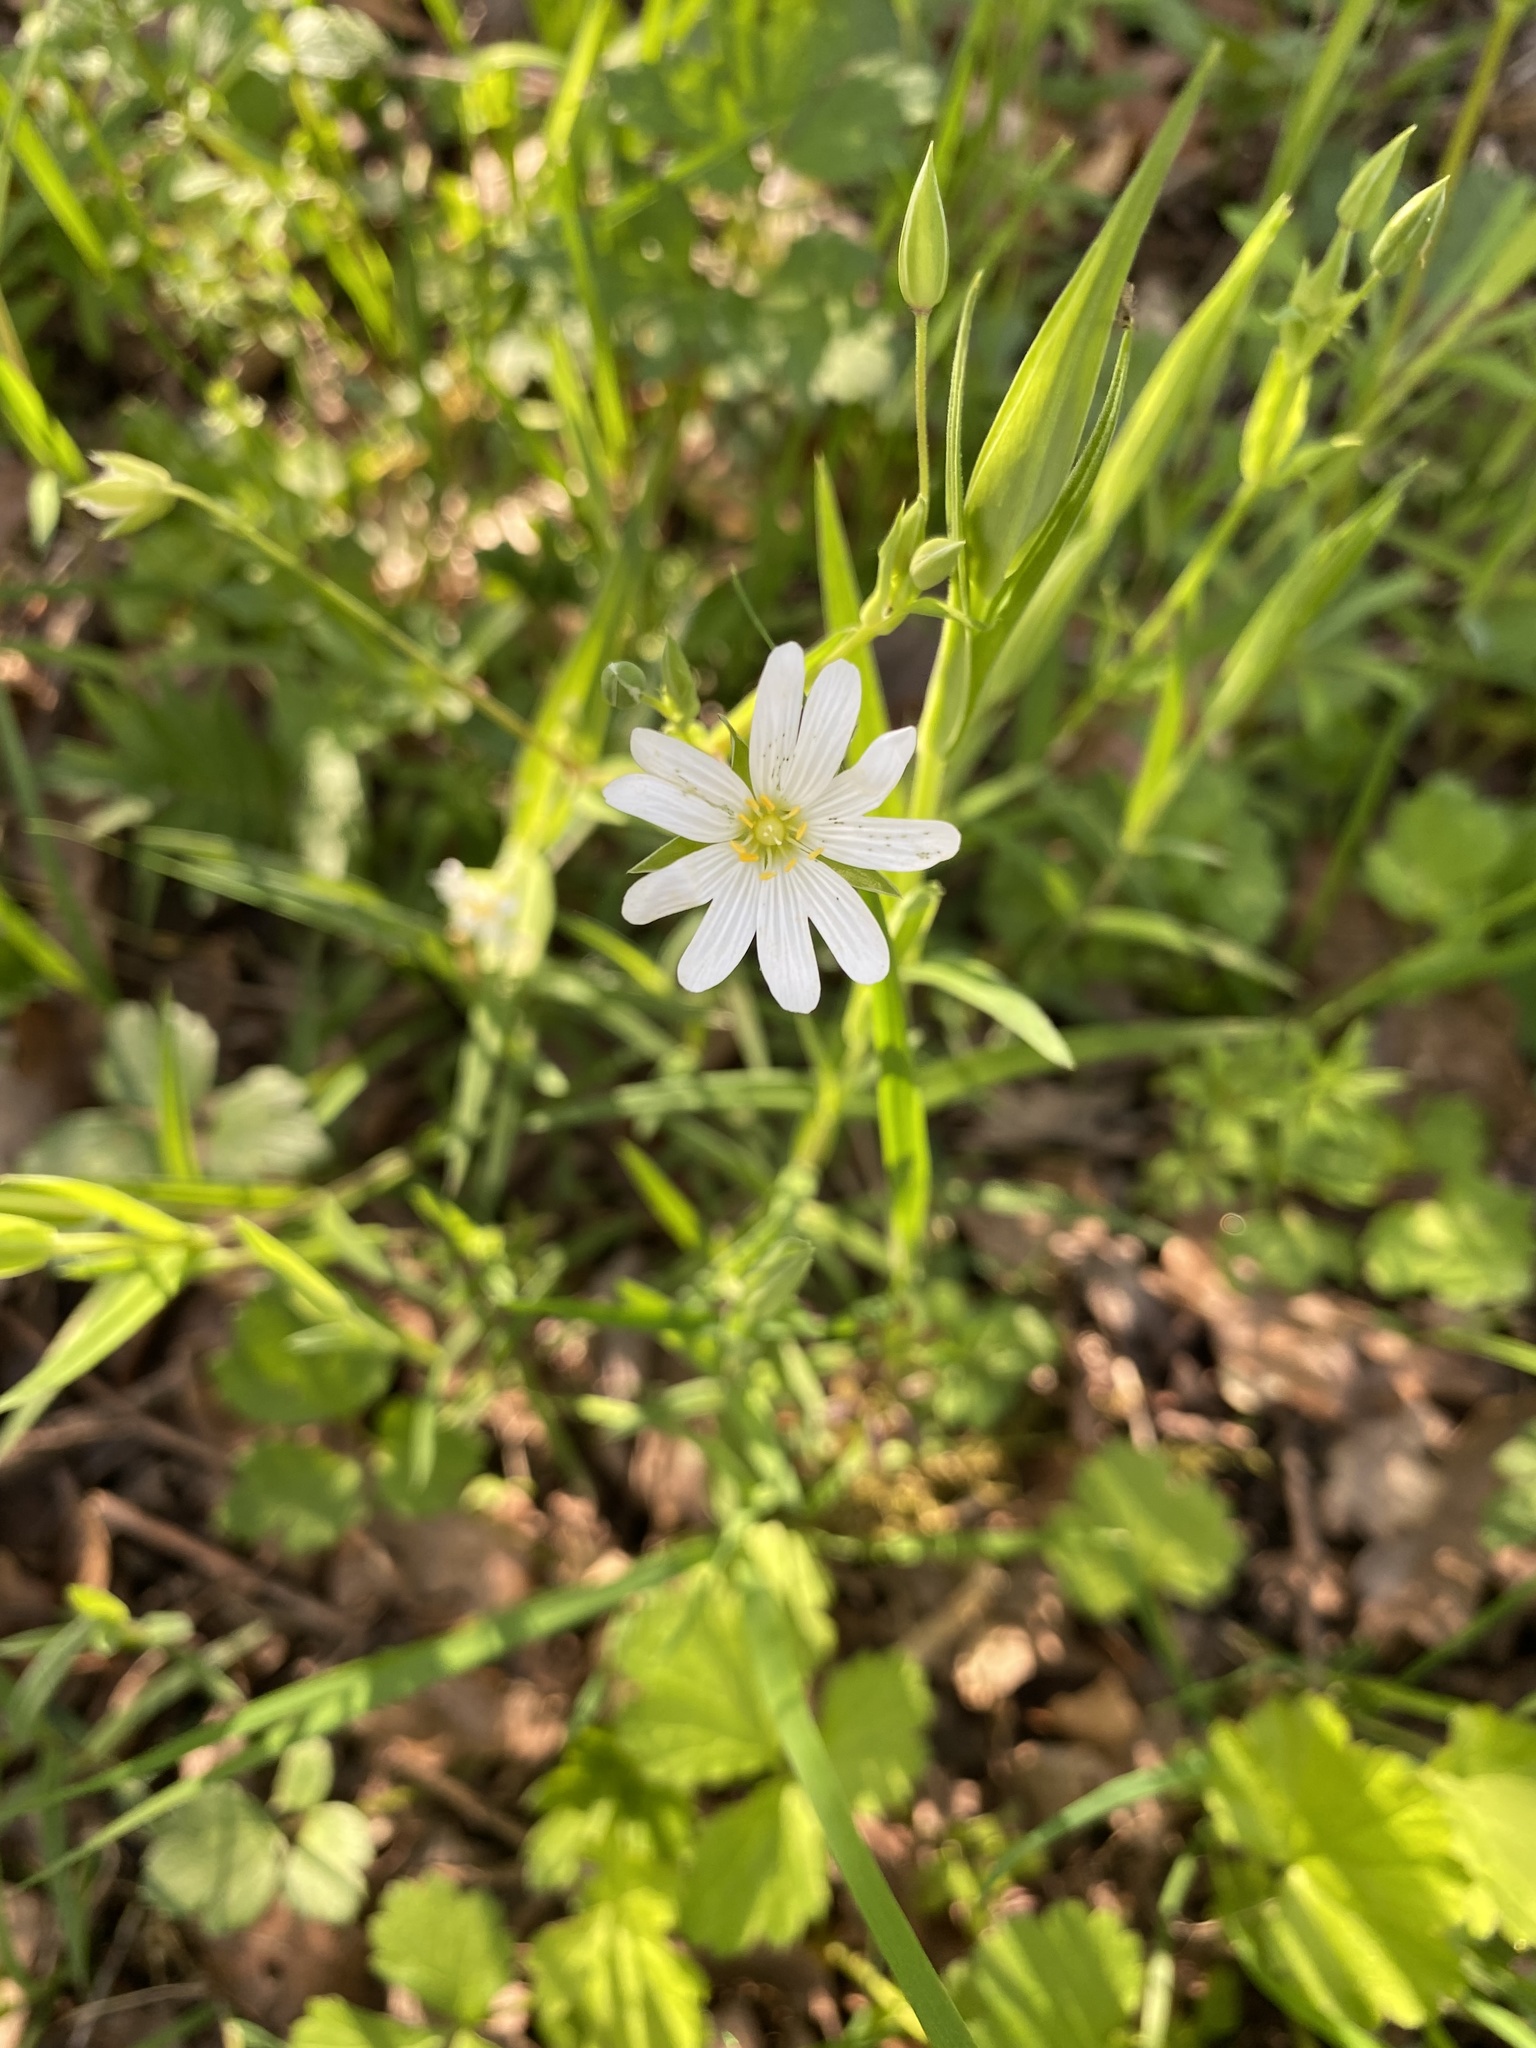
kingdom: Plantae
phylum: Tracheophyta
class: Magnoliopsida
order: Caryophyllales
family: Caryophyllaceae
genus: Rabelera
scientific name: Rabelera holostea
